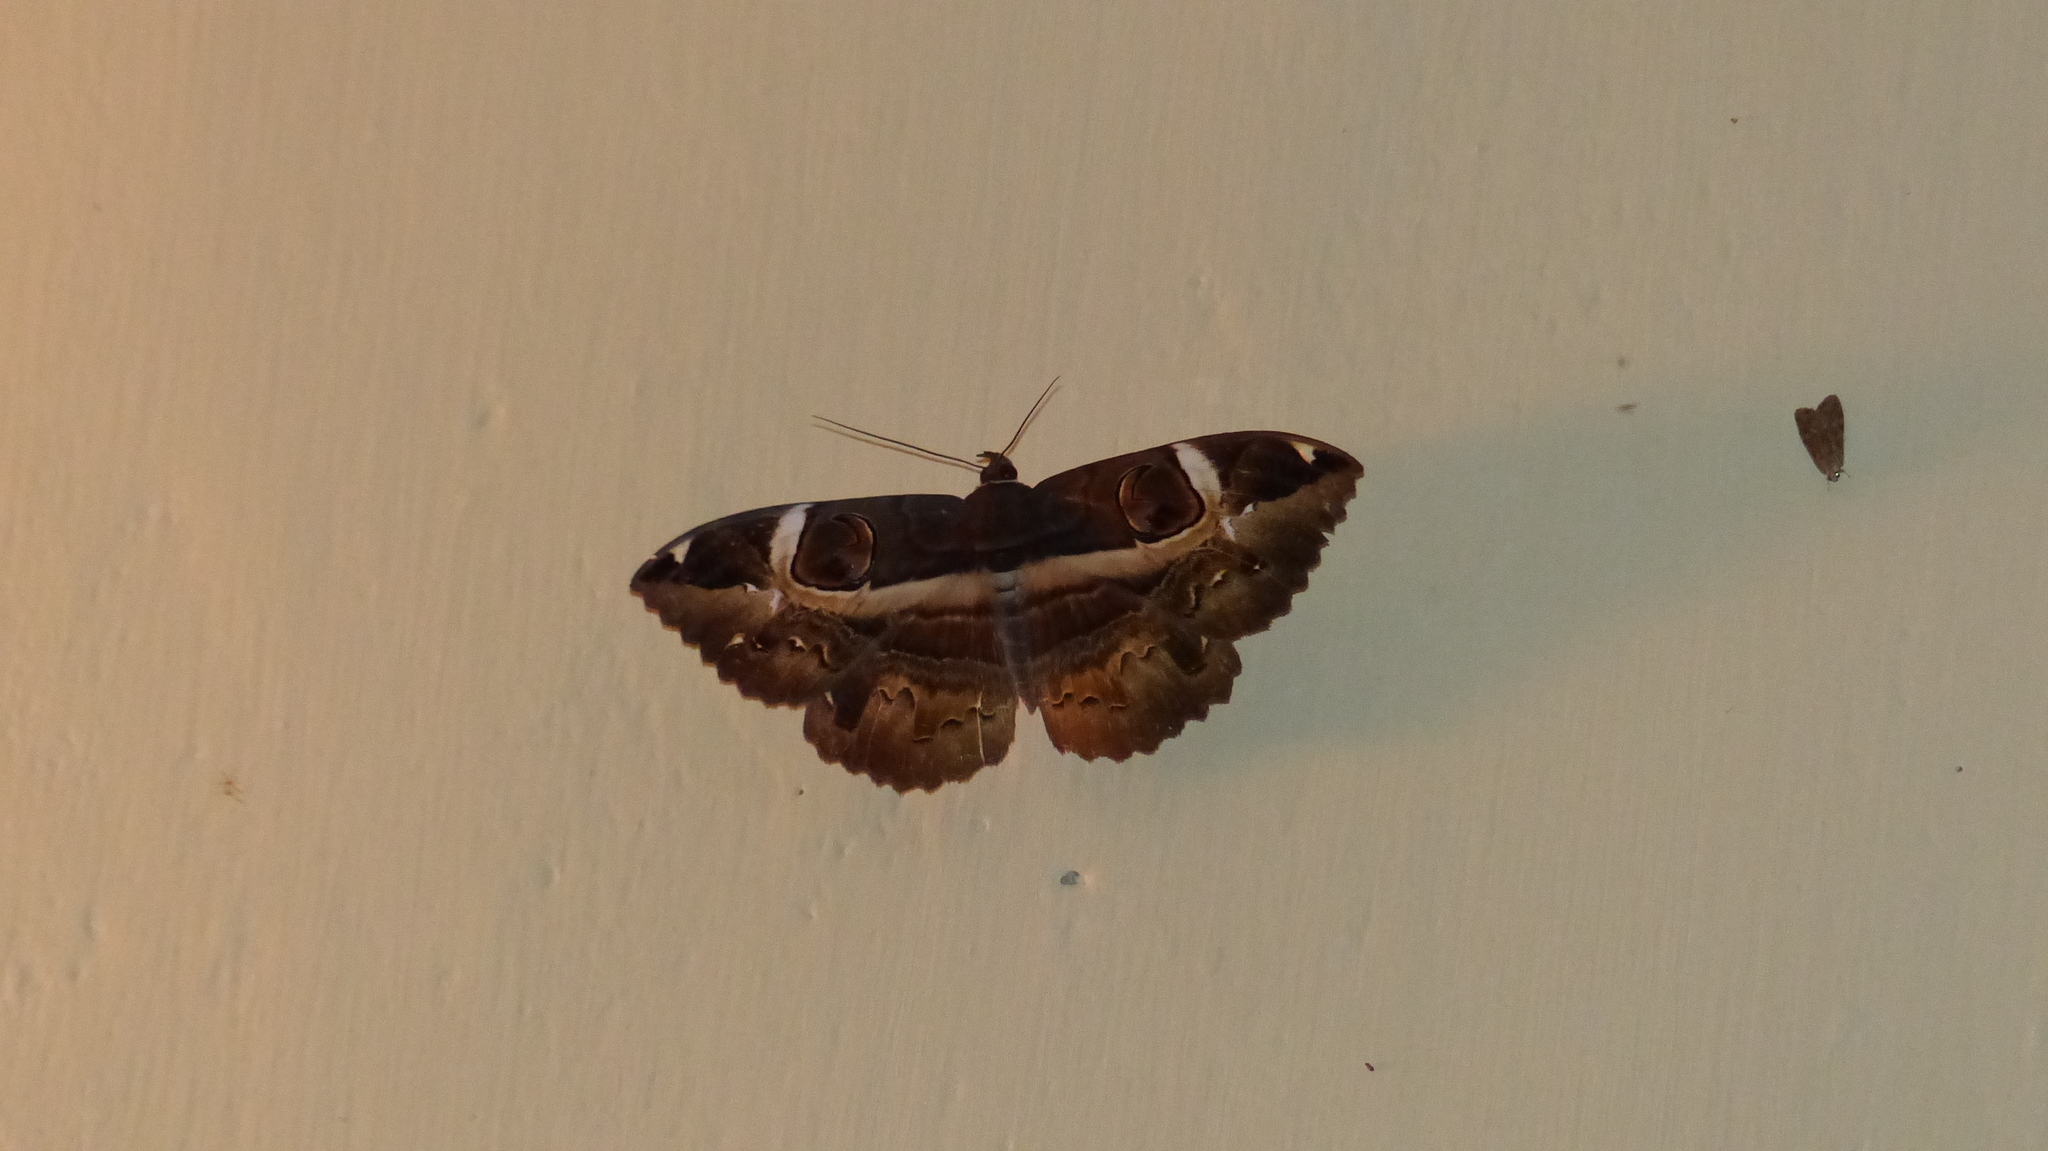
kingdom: Animalia
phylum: Arthropoda
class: Insecta
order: Lepidoptera
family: Erebidae
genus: Erebus
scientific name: Erebus ephesperis
